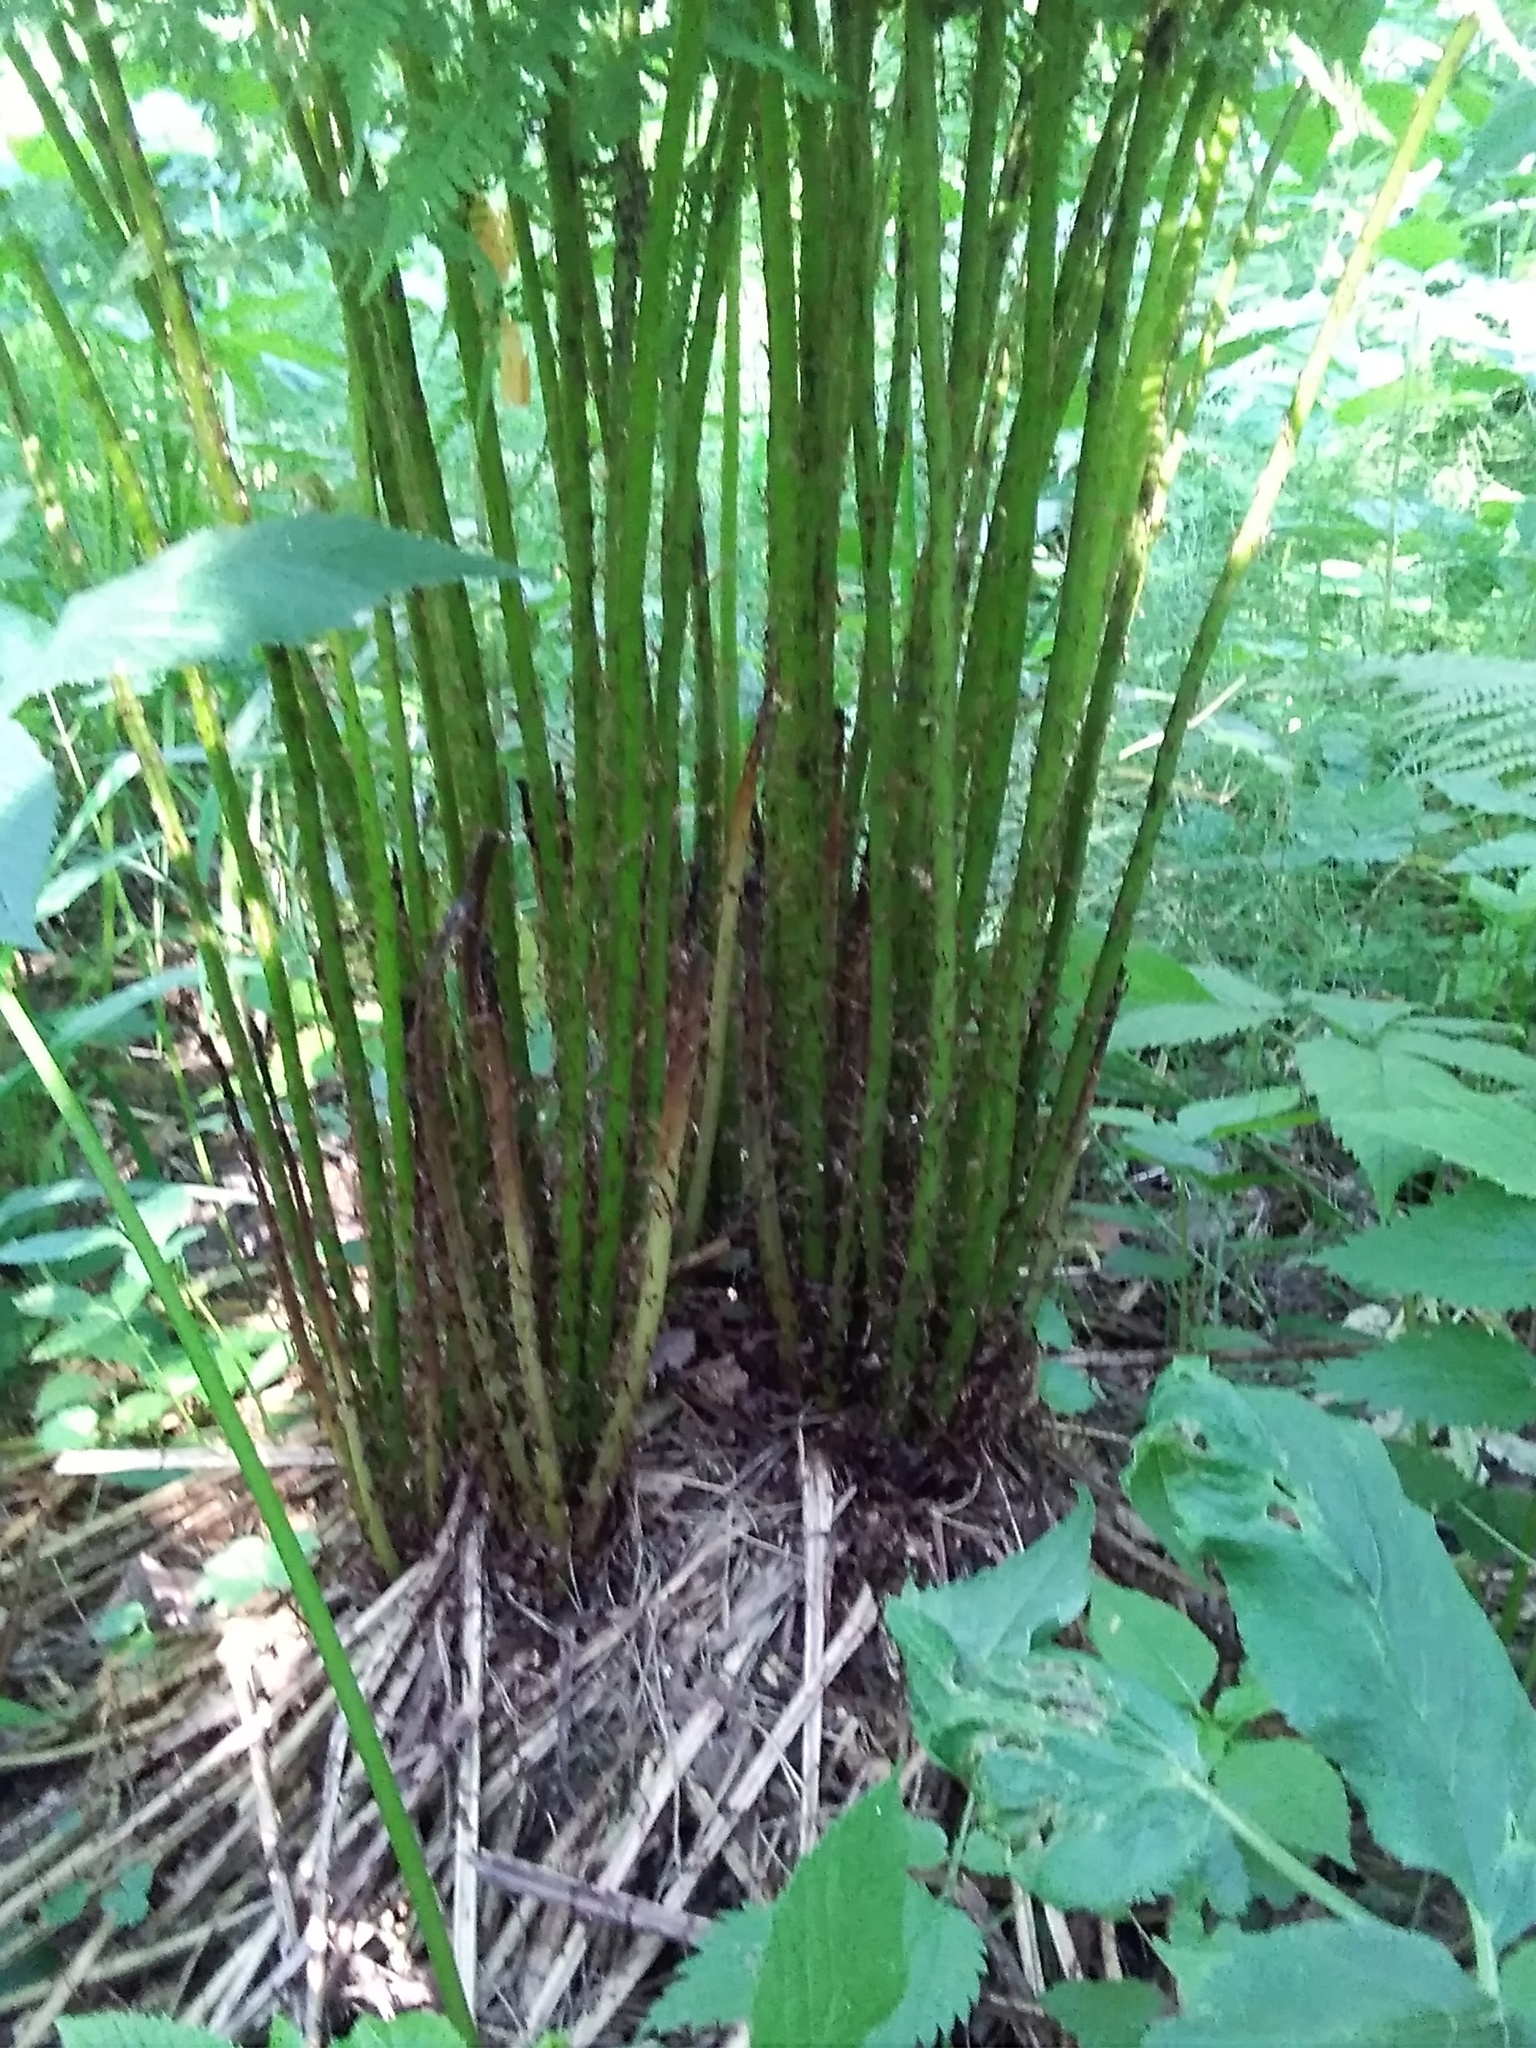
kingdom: Plantae
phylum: Tracheophyta
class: Polypodiopsida
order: Polypodiales
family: Athyriaceae
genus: Athyrium
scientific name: Athyrium filix-femina
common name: Lady fern
